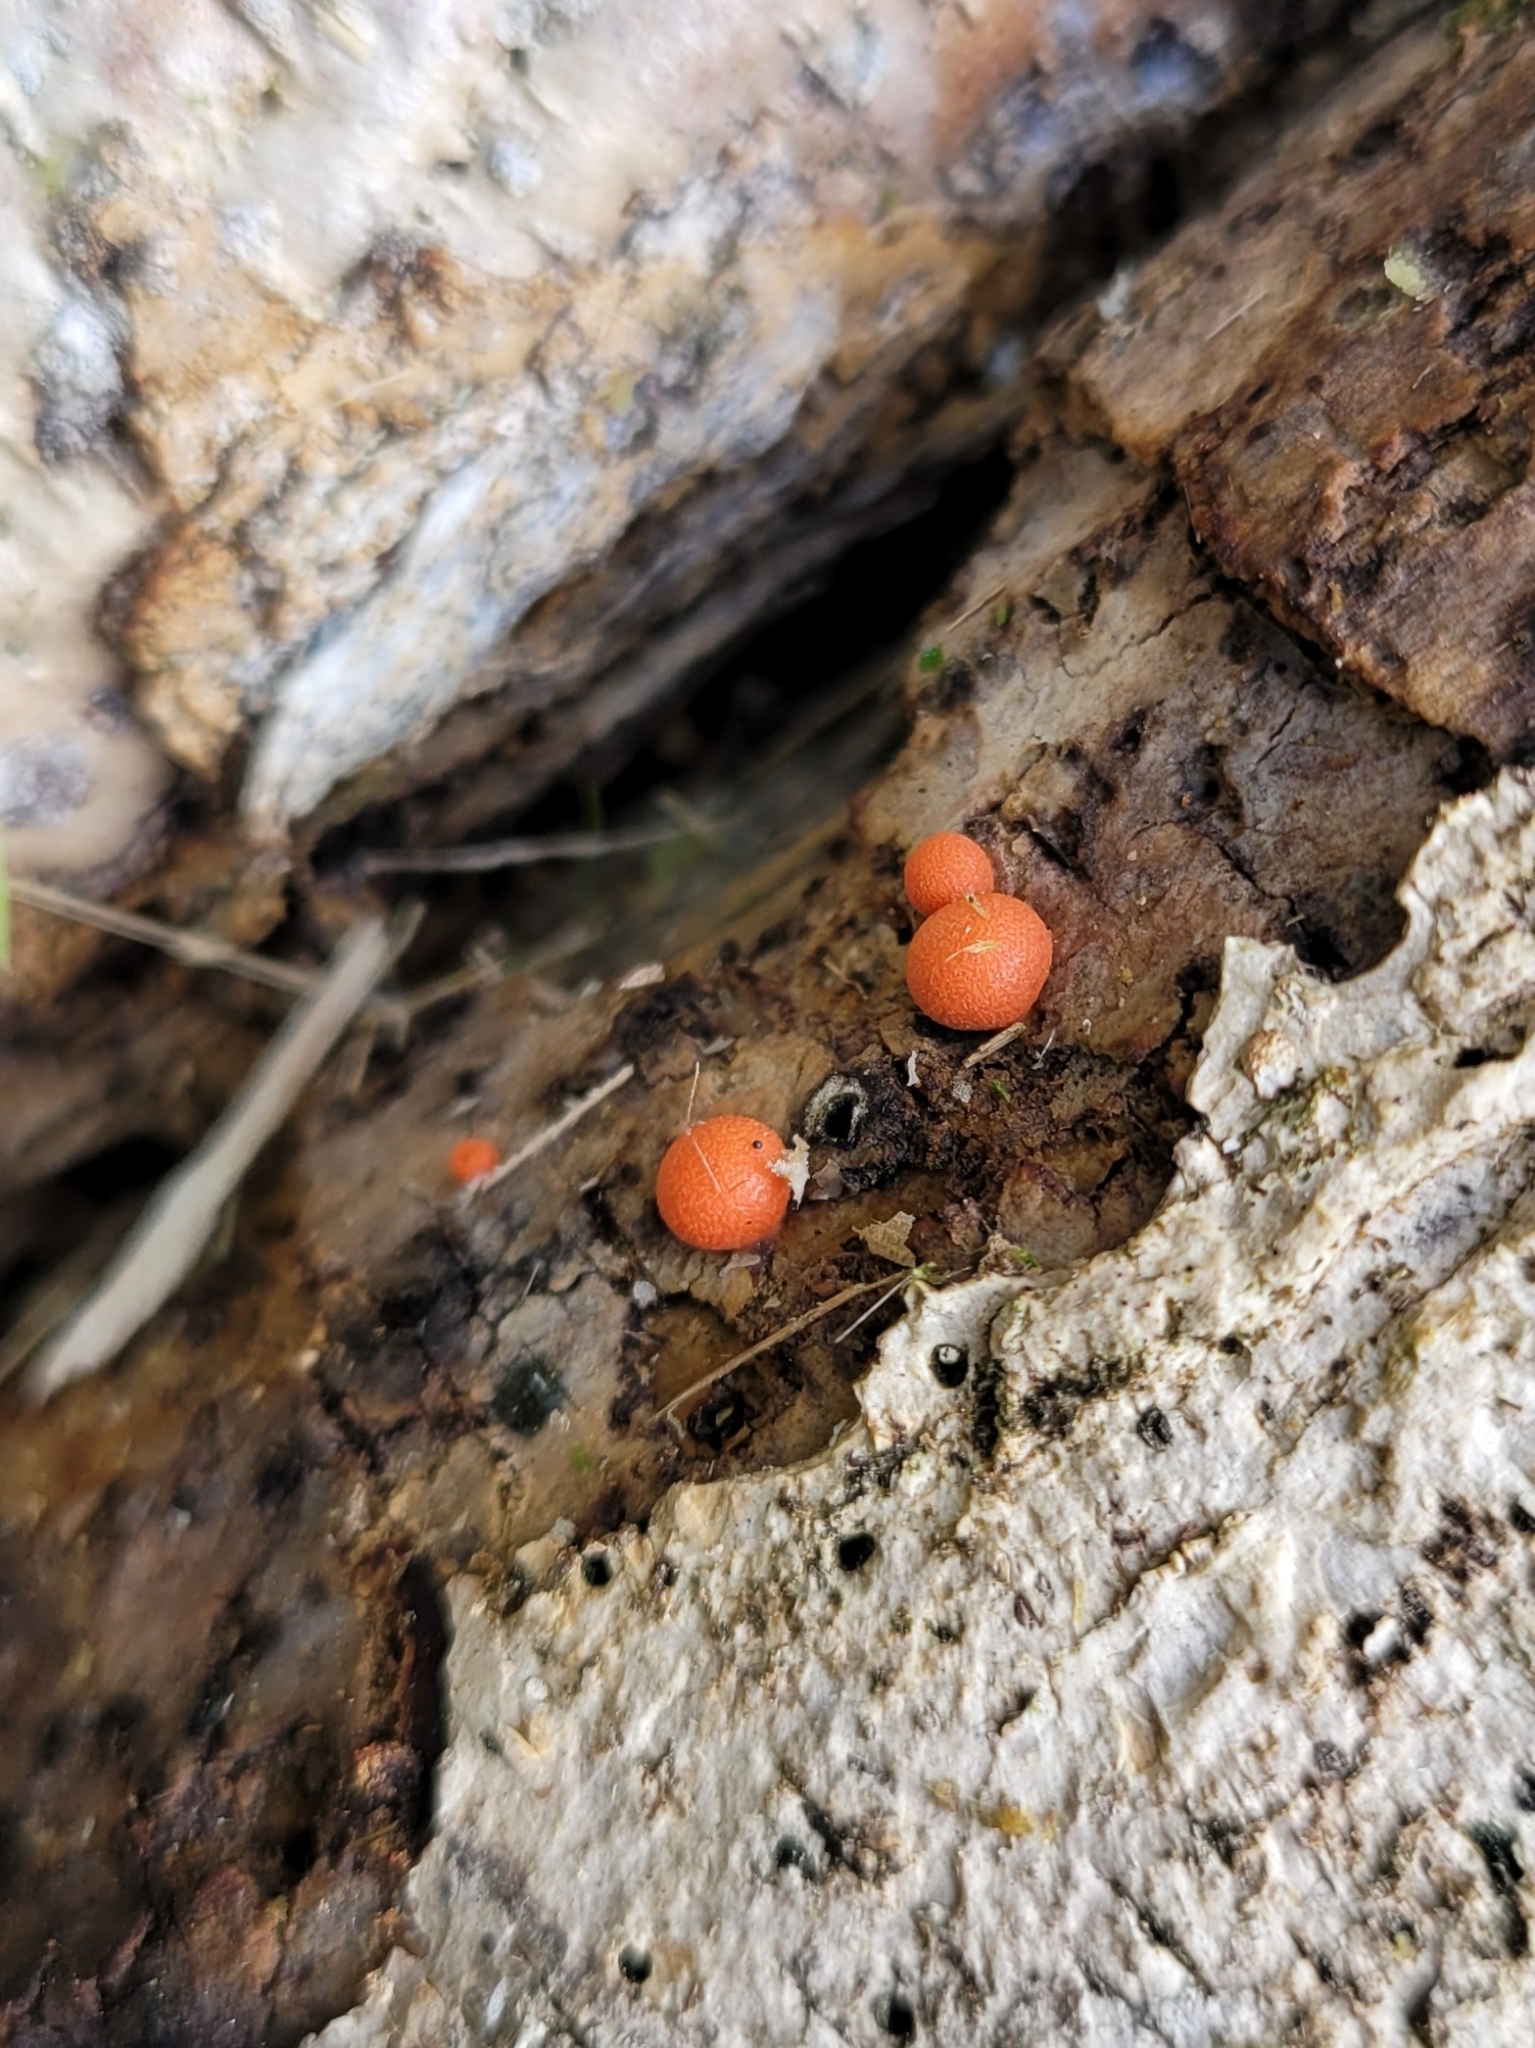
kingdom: Protozoa
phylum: Mycetozoa
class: Myxomycetes
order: Cribrariales
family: Tubiferaceae
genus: Lycogala
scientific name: Lycogala epidendrum
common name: Wolf's milk
